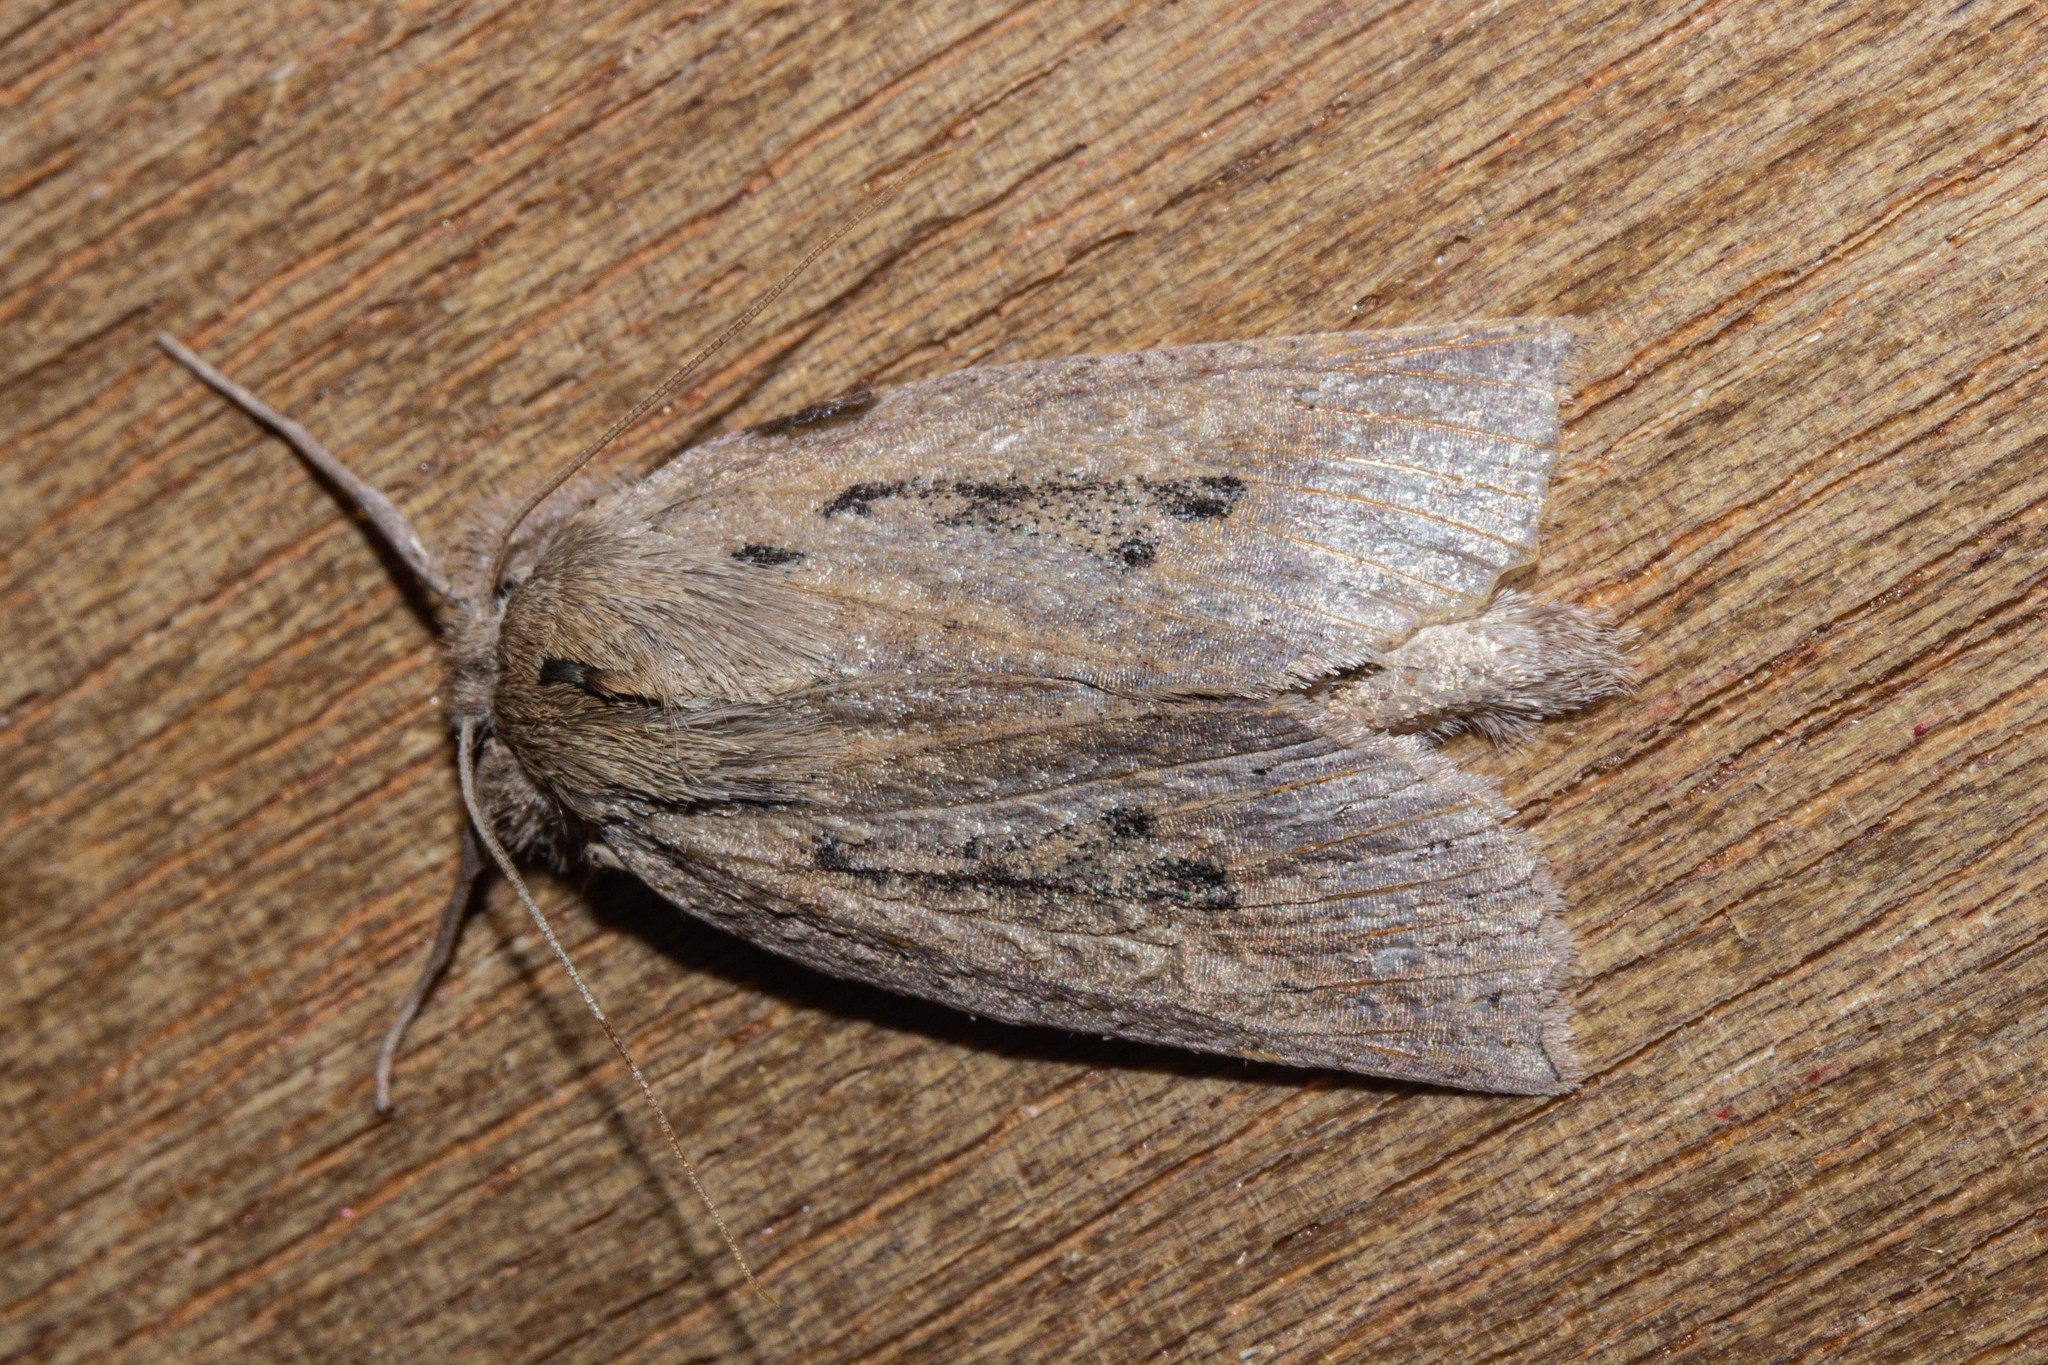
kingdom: Animalia
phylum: Arthropoda
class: Insecta
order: Lepidoptera
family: Geometridae
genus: Declana
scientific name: Declana leptomera
